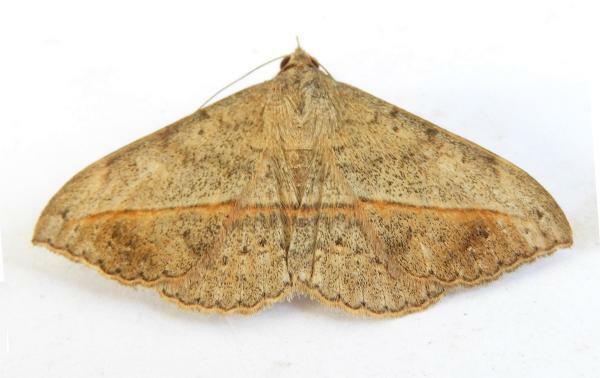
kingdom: Animalia
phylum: Arthropoda
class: Insecta
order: Lepidoptera
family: Erebidae
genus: Anticarsia
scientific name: Anticarsia gemmatalis
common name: Cutworm moth
